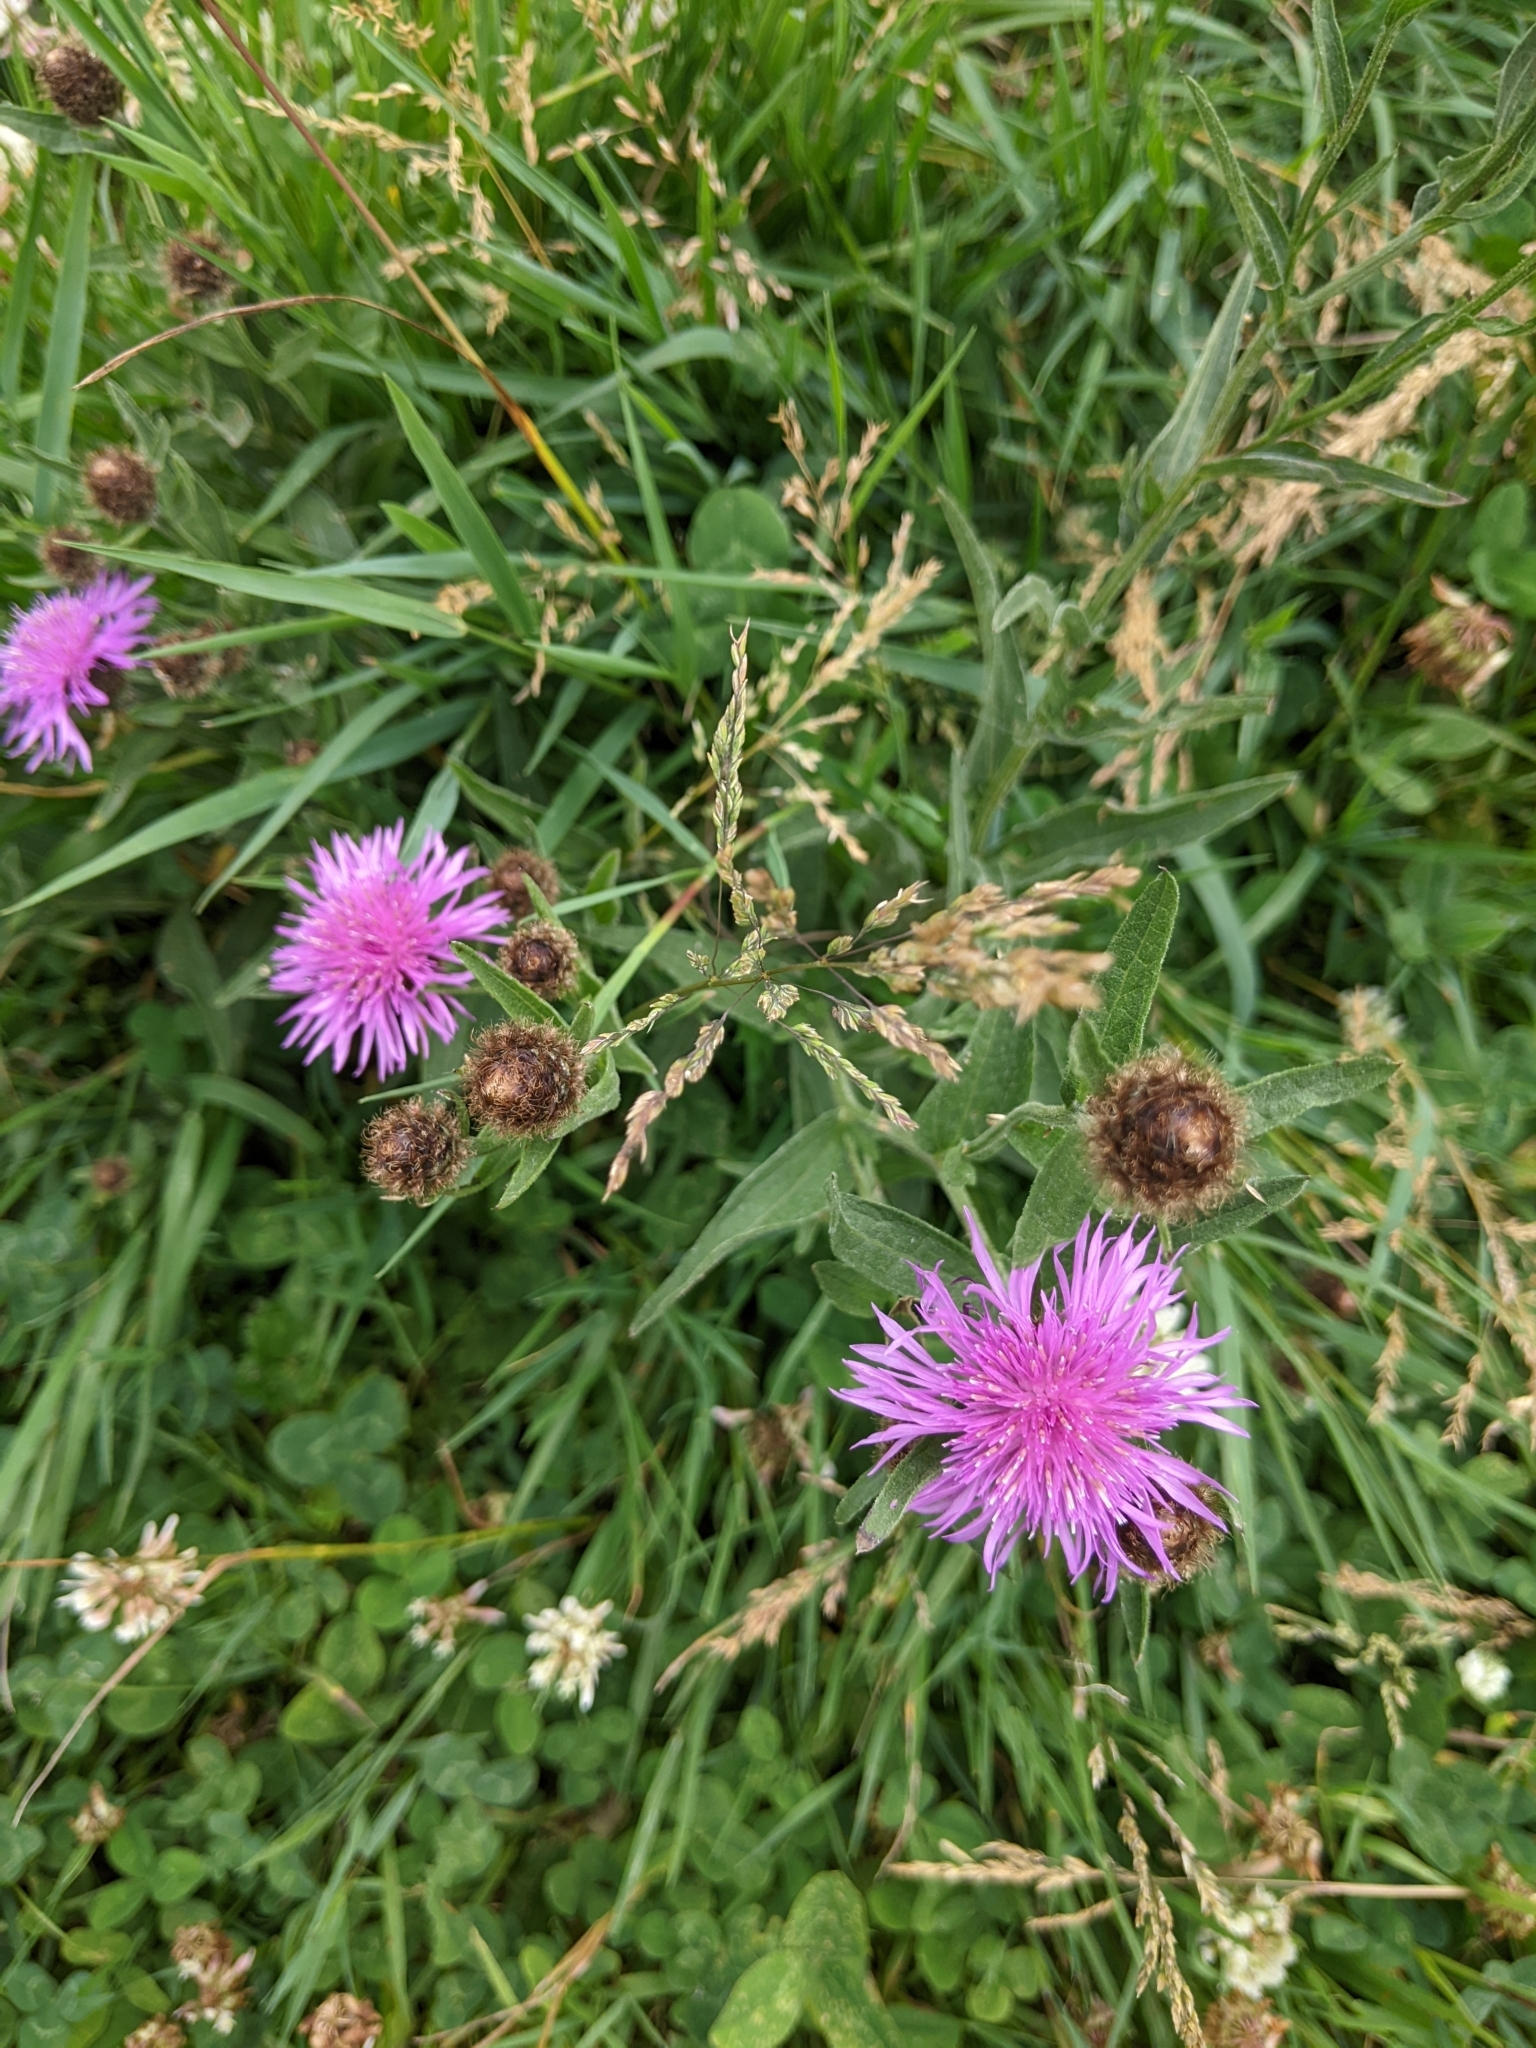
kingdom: Plantae
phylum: Tracheophyta
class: Magnoliopsida
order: Asterales
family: Asteraceae
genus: Centaurea
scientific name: Centaurea nigra
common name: Lesser knapweed
